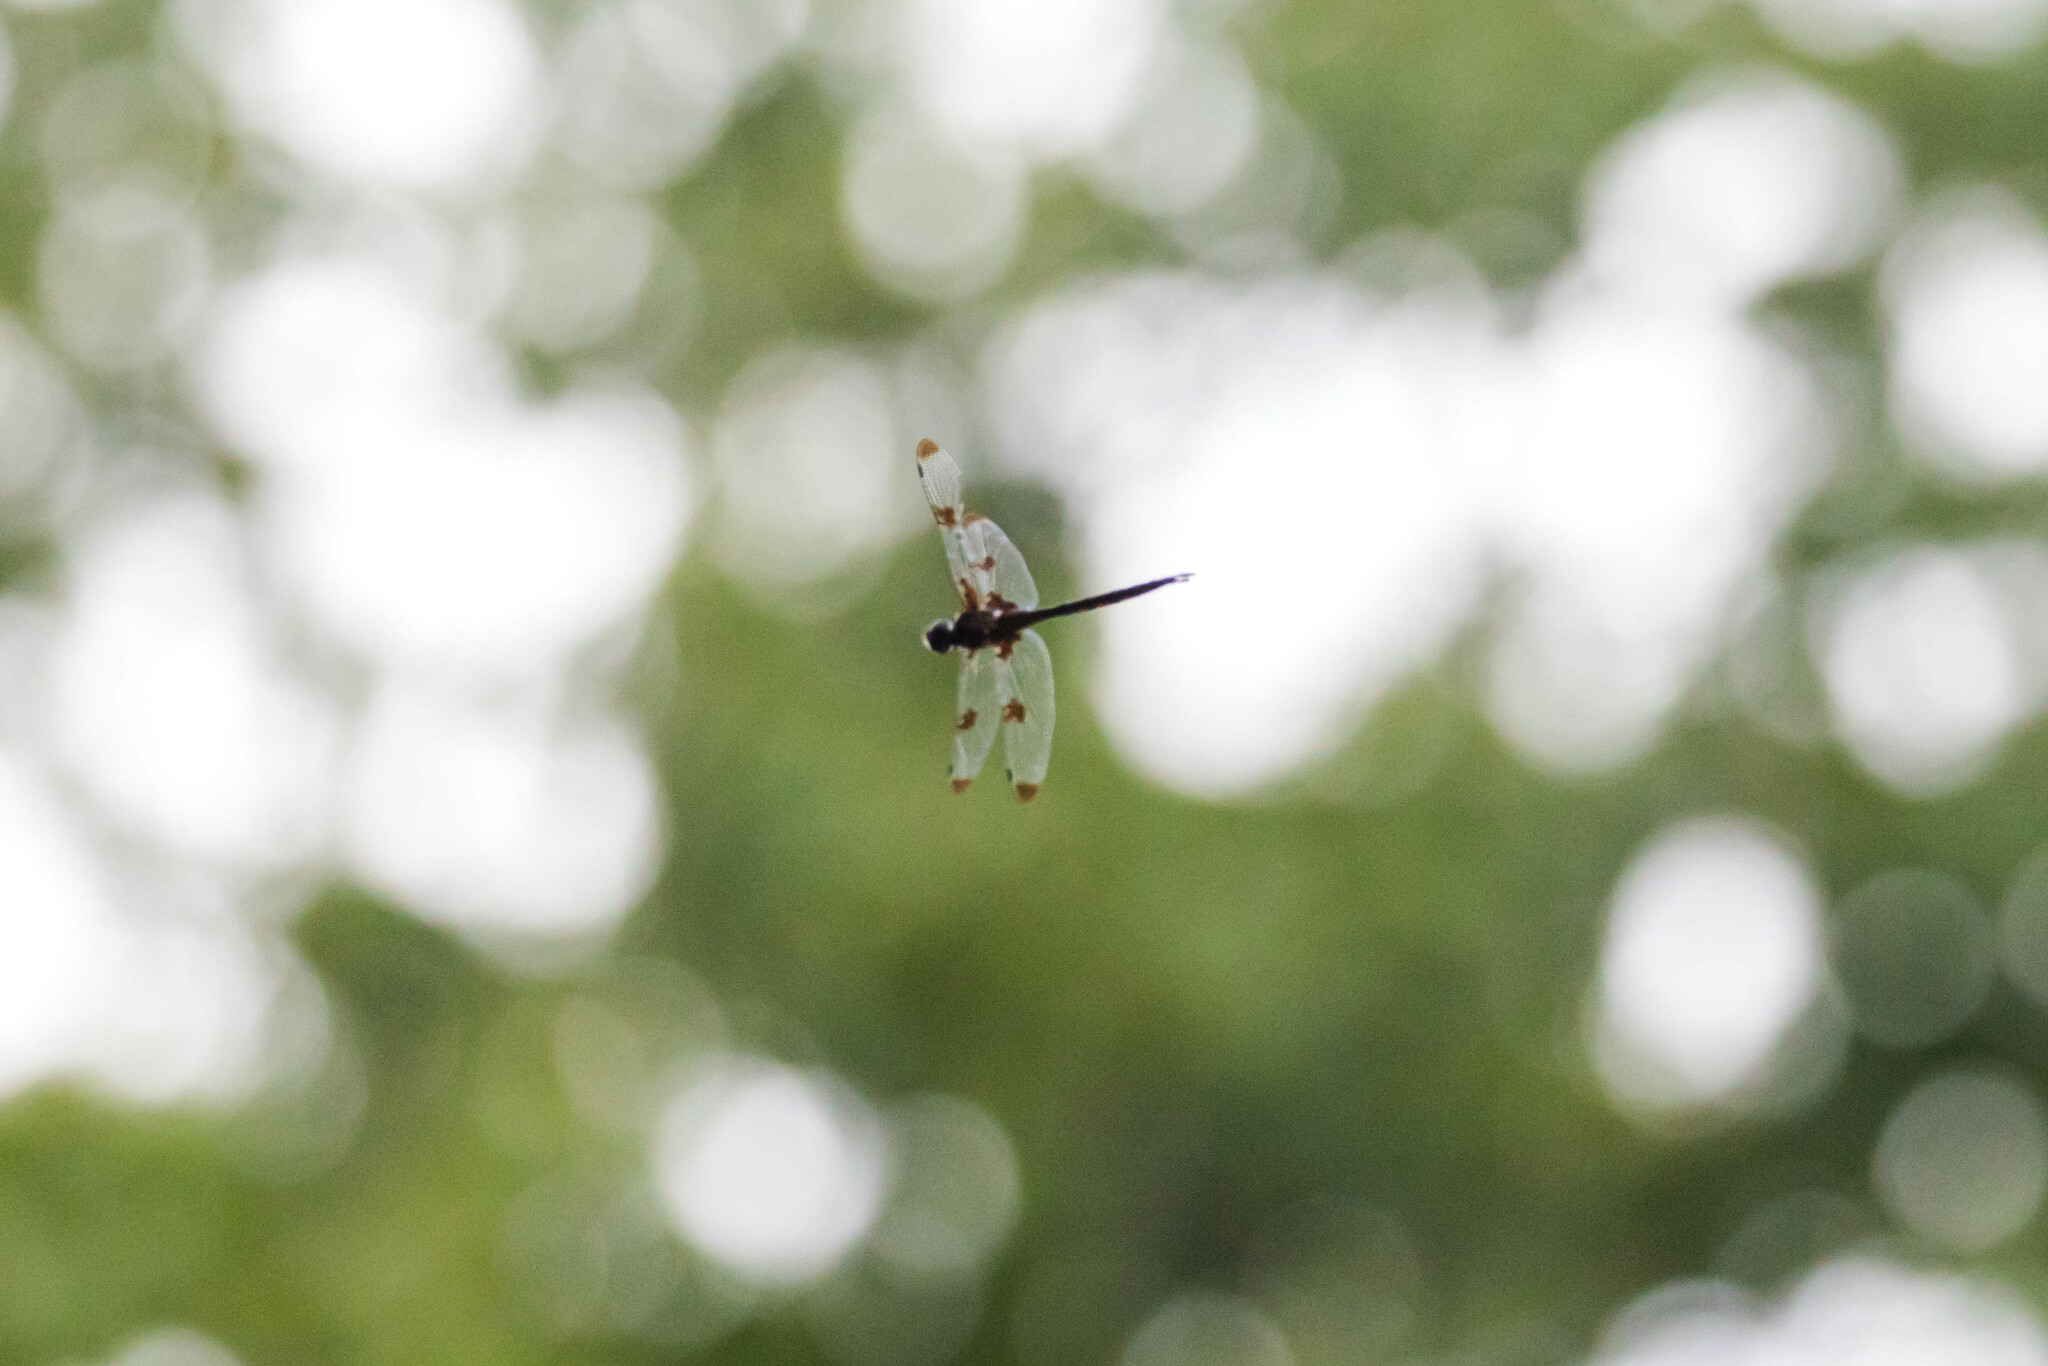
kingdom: Animalia
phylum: Arthropoda
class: Insecta
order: Odonata
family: Corduliidae
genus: Epitheca
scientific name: Epitheca princeps
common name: Prince baskettail
